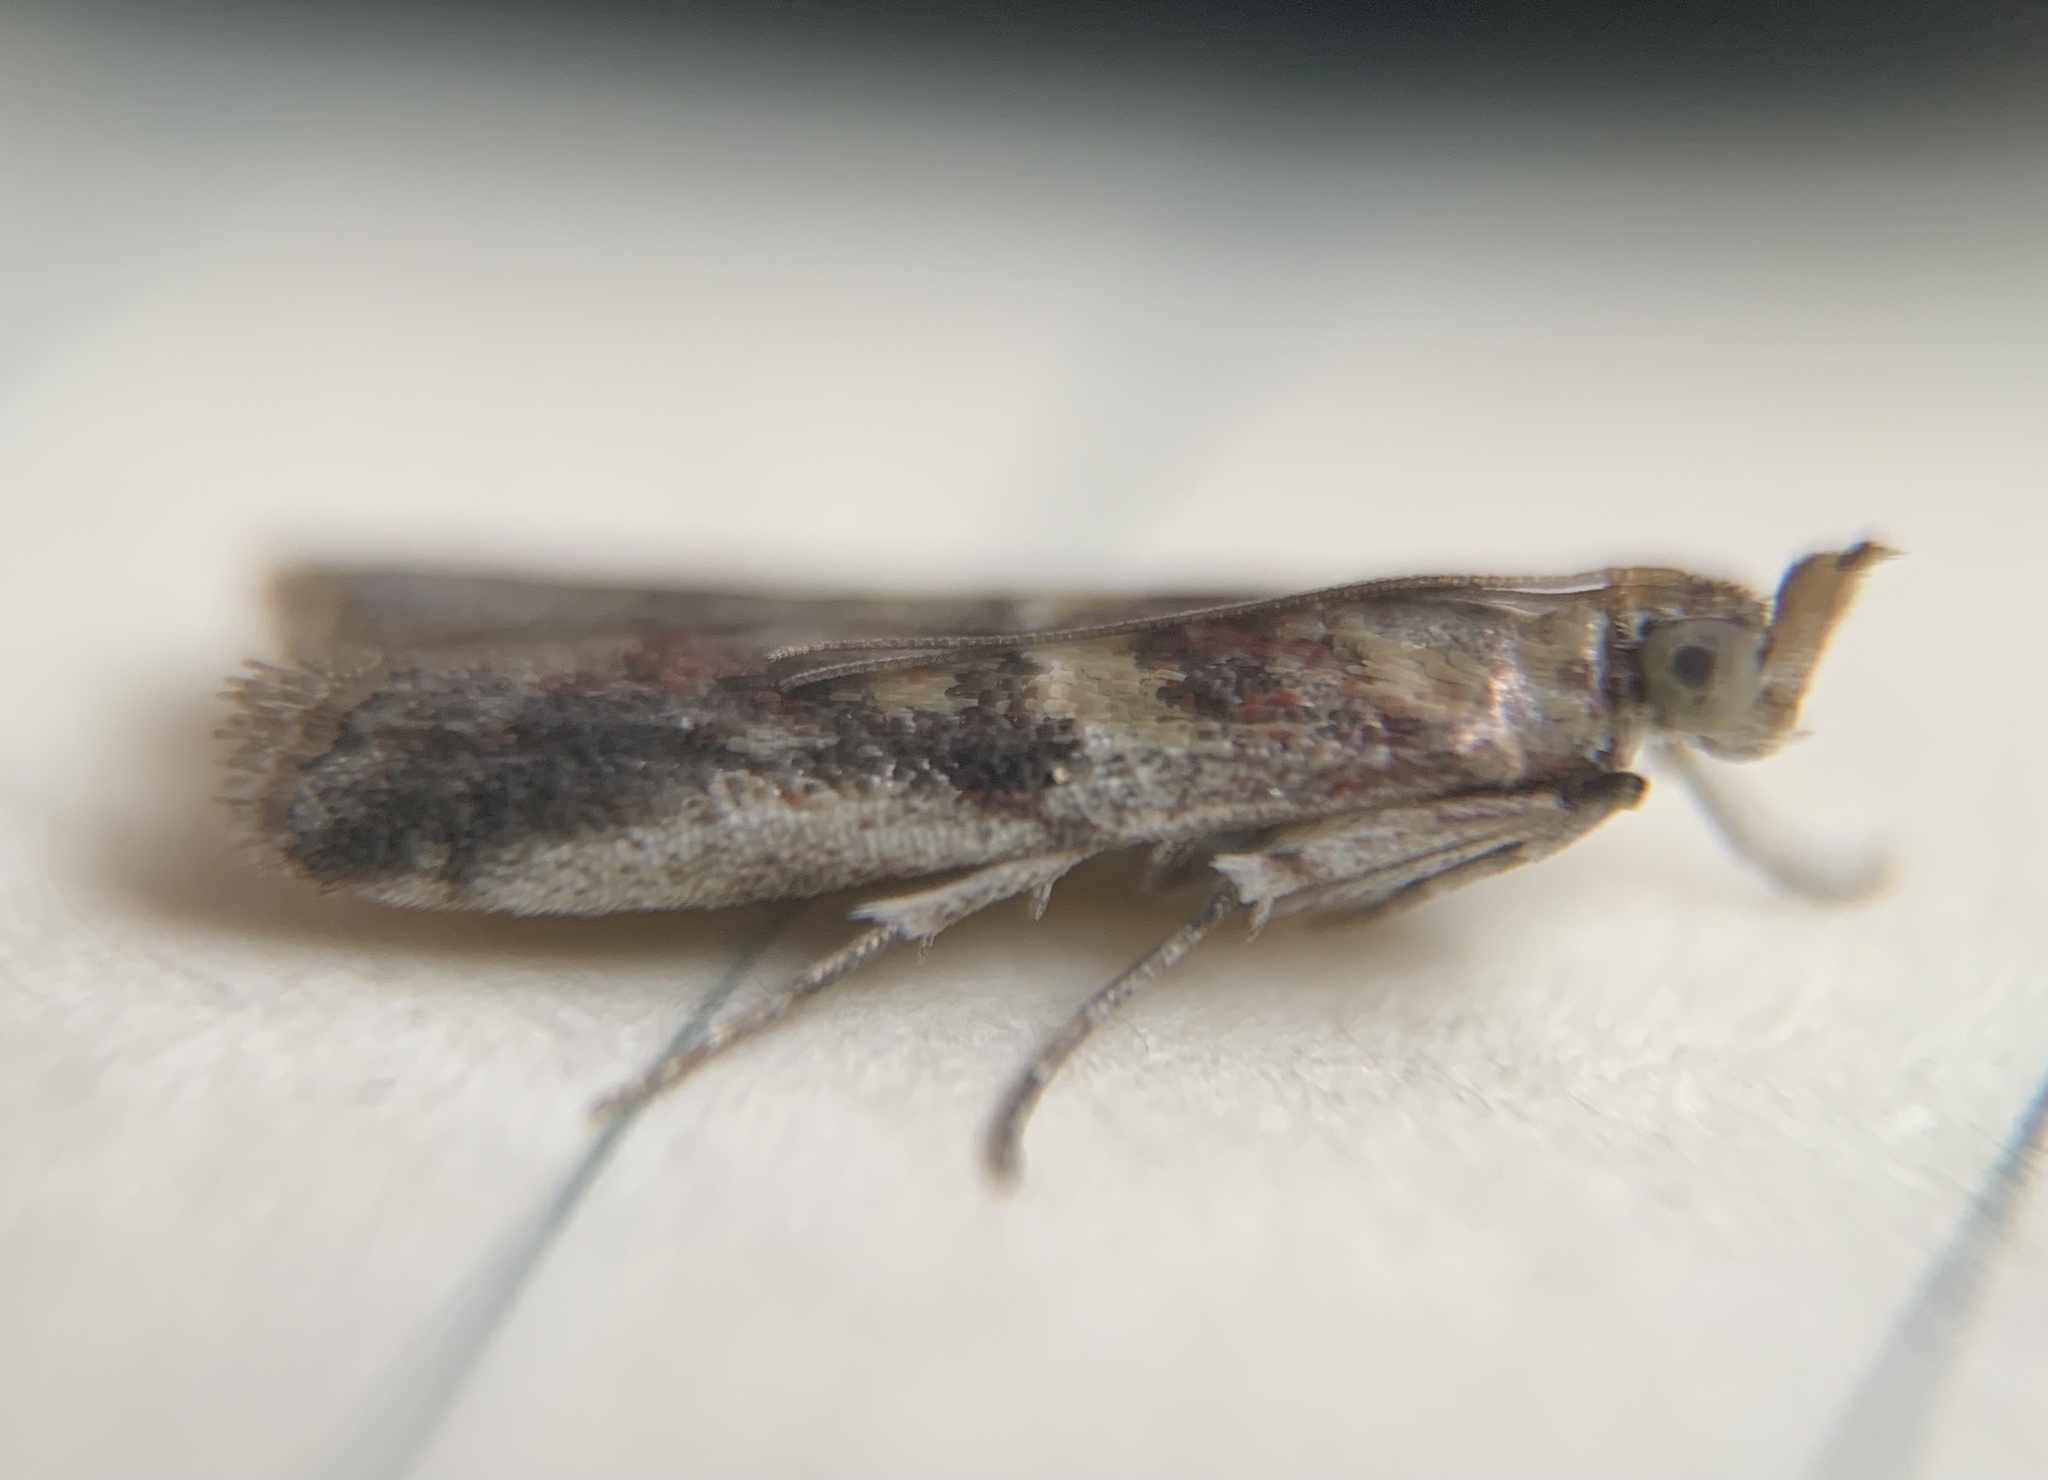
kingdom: Animalia
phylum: Arthropoda
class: Insecta
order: Lepidoptera
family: Pyralidae
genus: Ancylosis
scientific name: Ancylosis bonhoti
